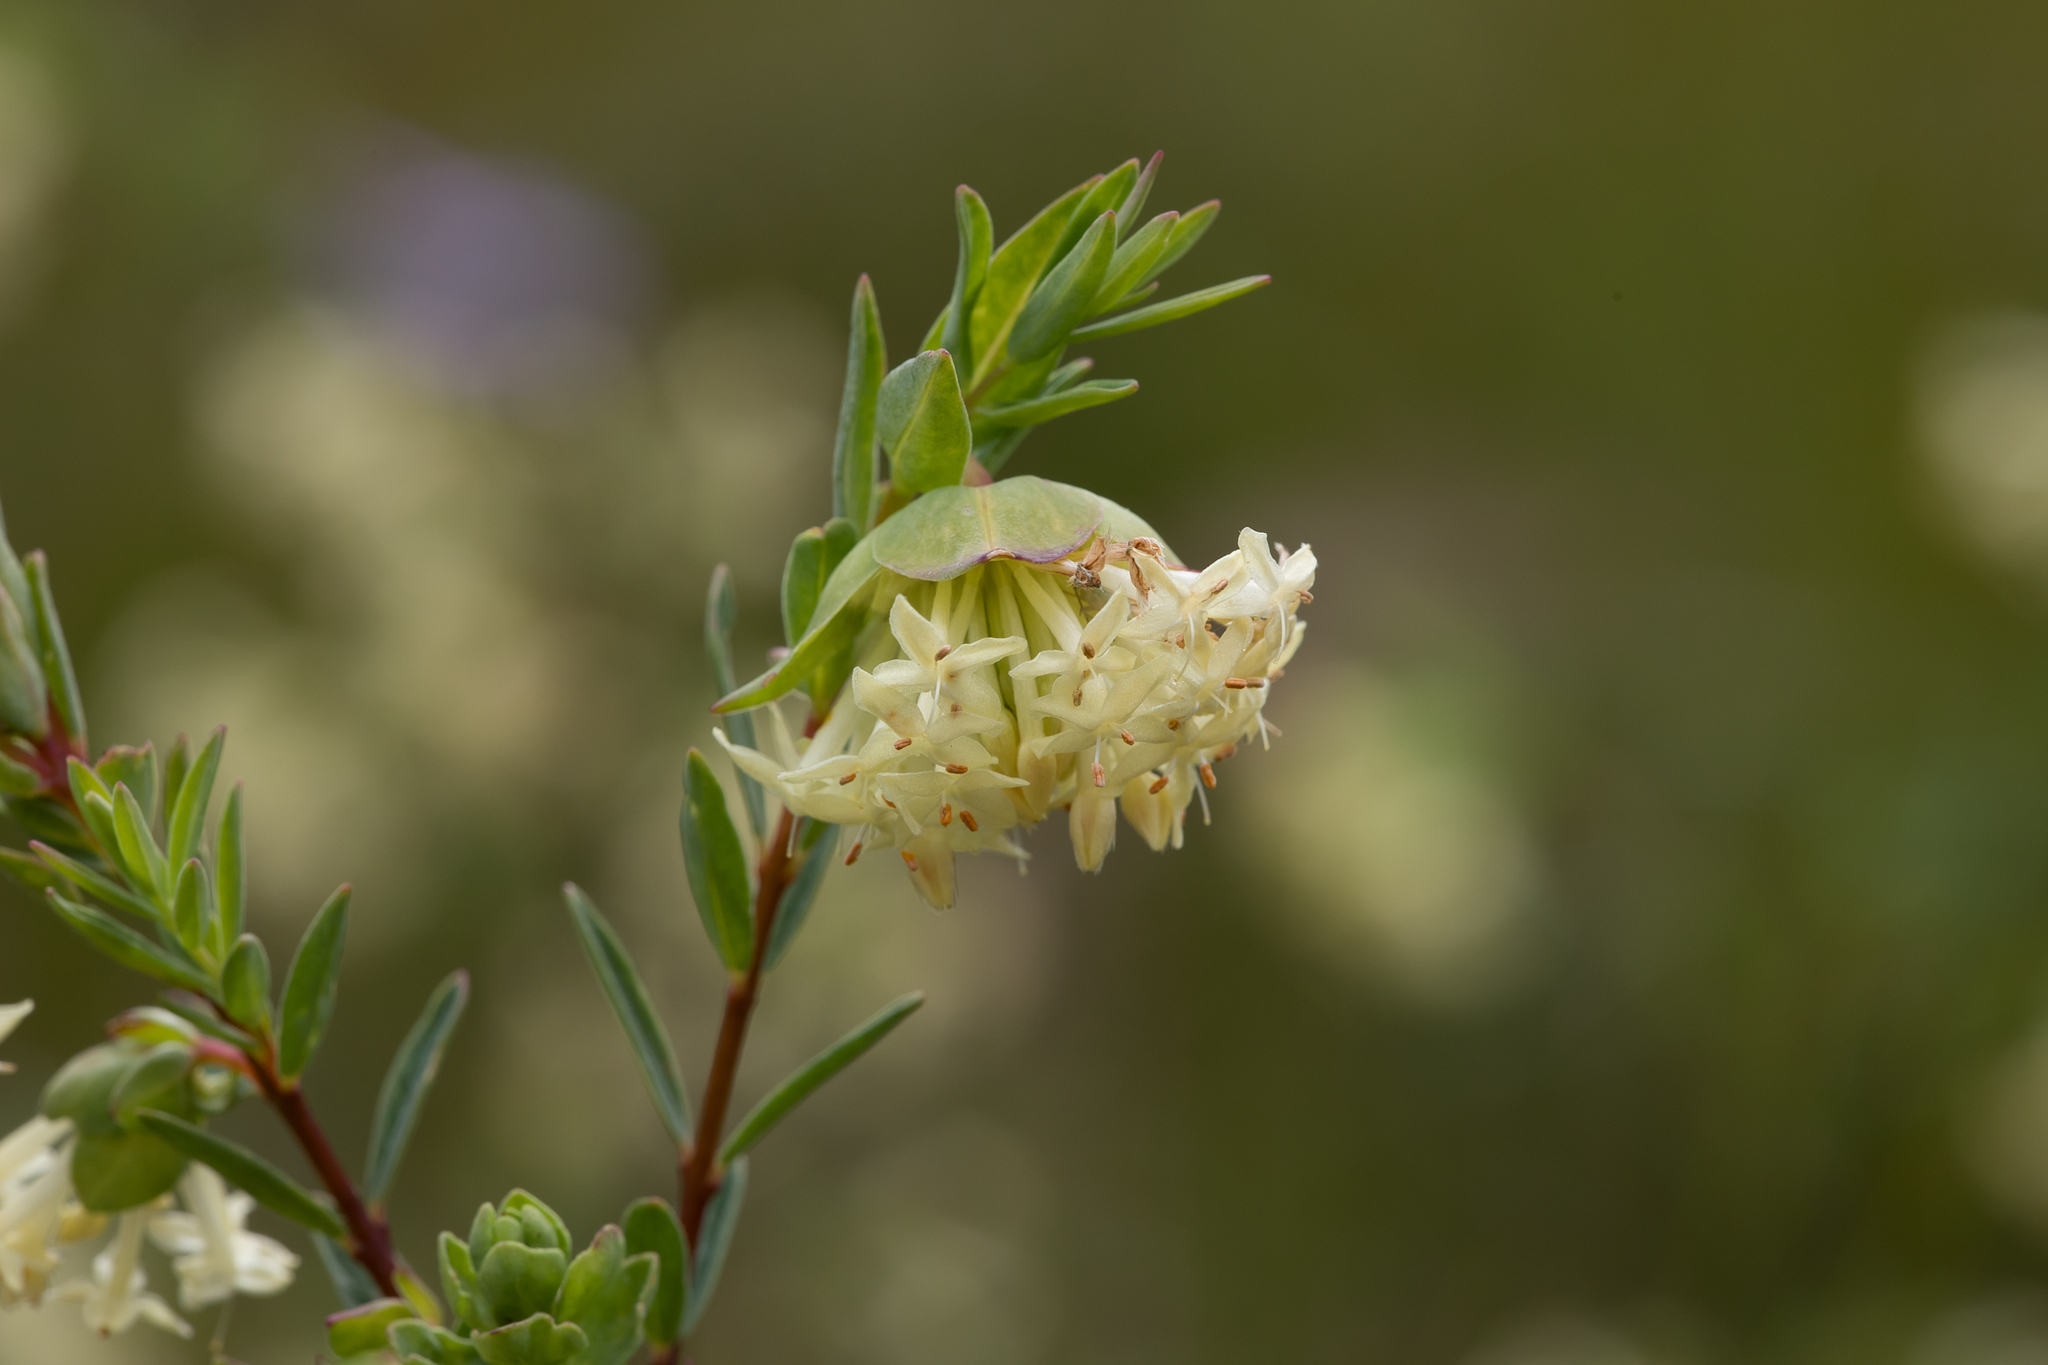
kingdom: Plantae
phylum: Tracheophyta
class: Magnoliopsida
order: Malvales
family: Thymelaeaceae
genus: Pimelea
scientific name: Pimelea linifolia
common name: Queen-of-the-bush
